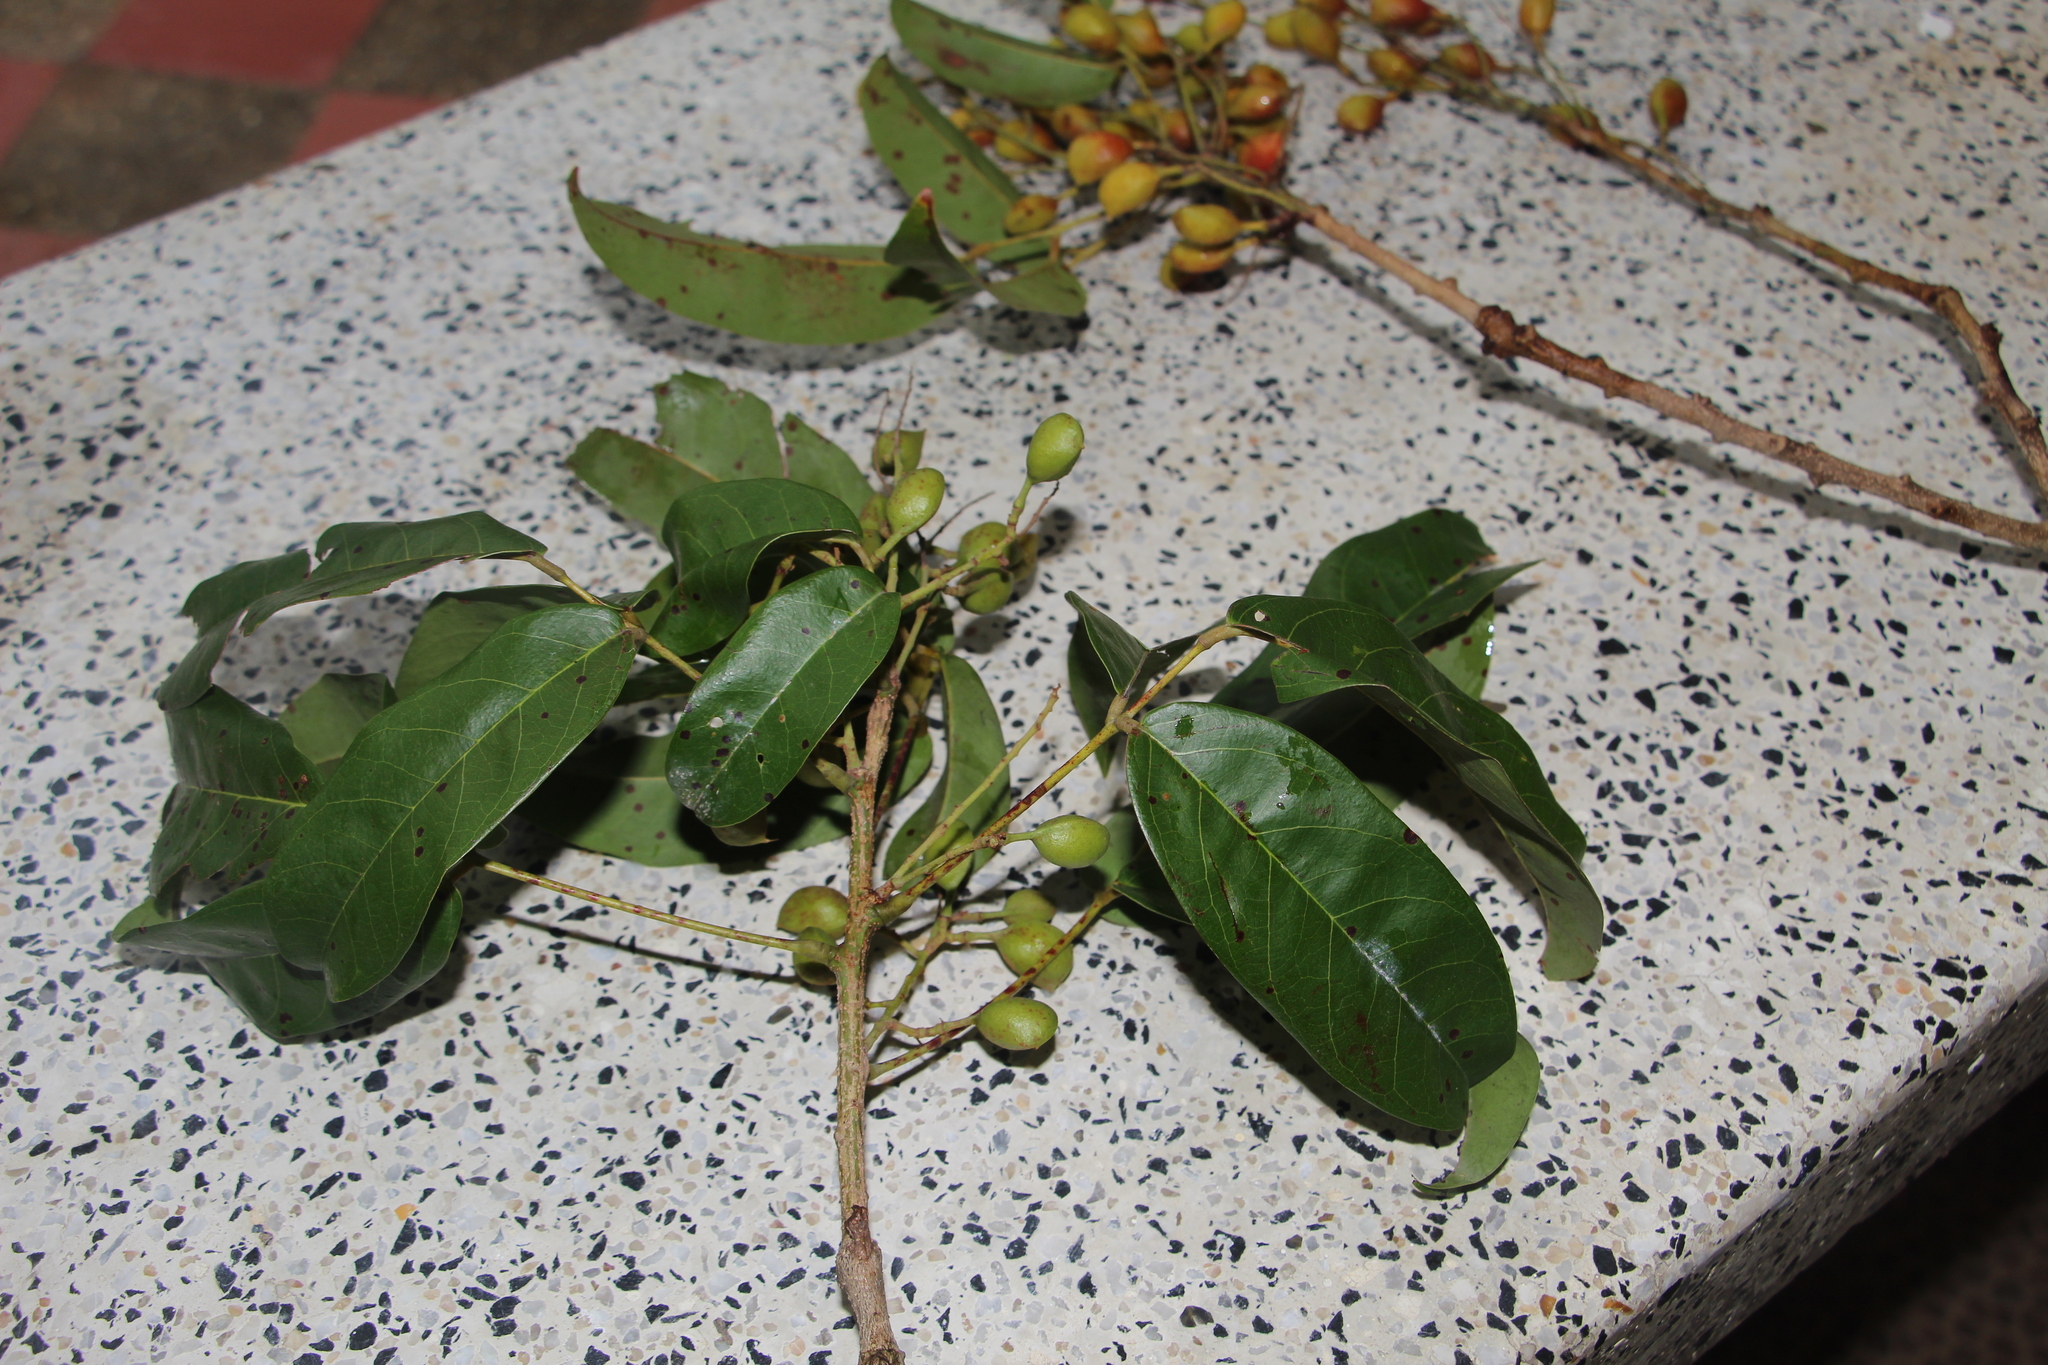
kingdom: Plantae
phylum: Tracheophyta
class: Magnoliopsida
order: Oxalidales
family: Connaraceae
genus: Connarus
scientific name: Connarus venezuelanus
